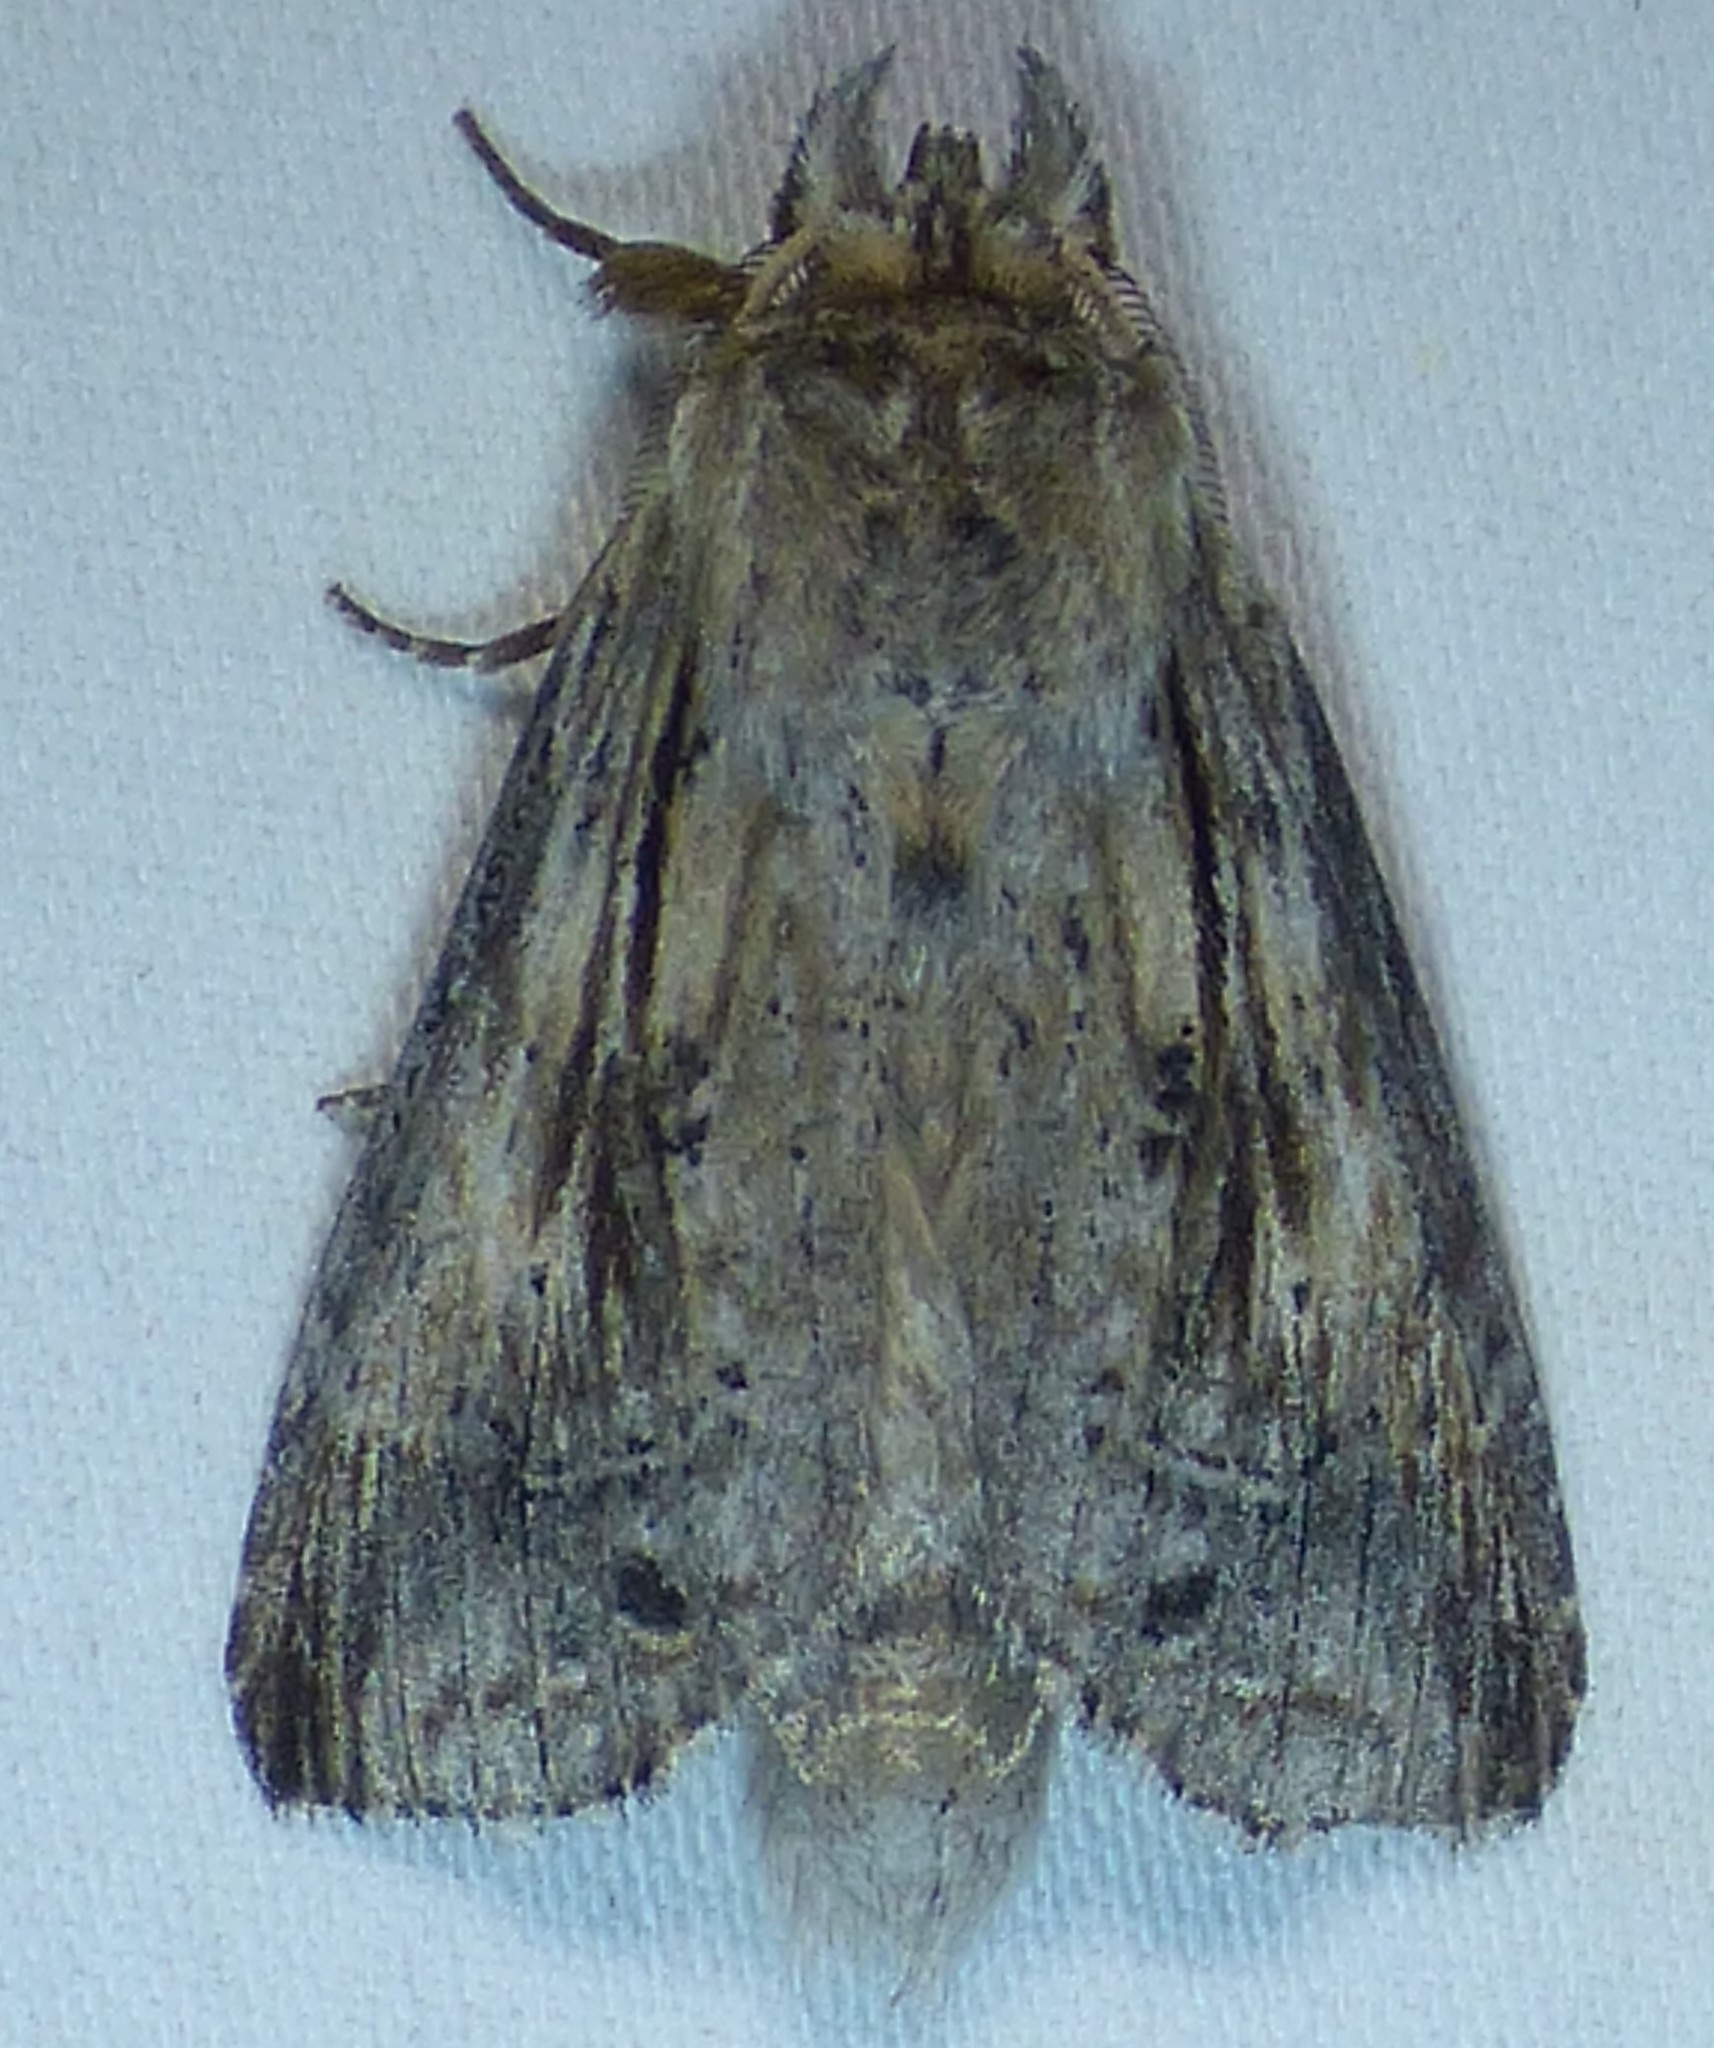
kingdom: Animalia
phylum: Arthropoda
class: Insecta
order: Lepidoptera
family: Notodontidae
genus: Dasylophia
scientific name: Dasylophia anguina
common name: Black-spotted prominent
